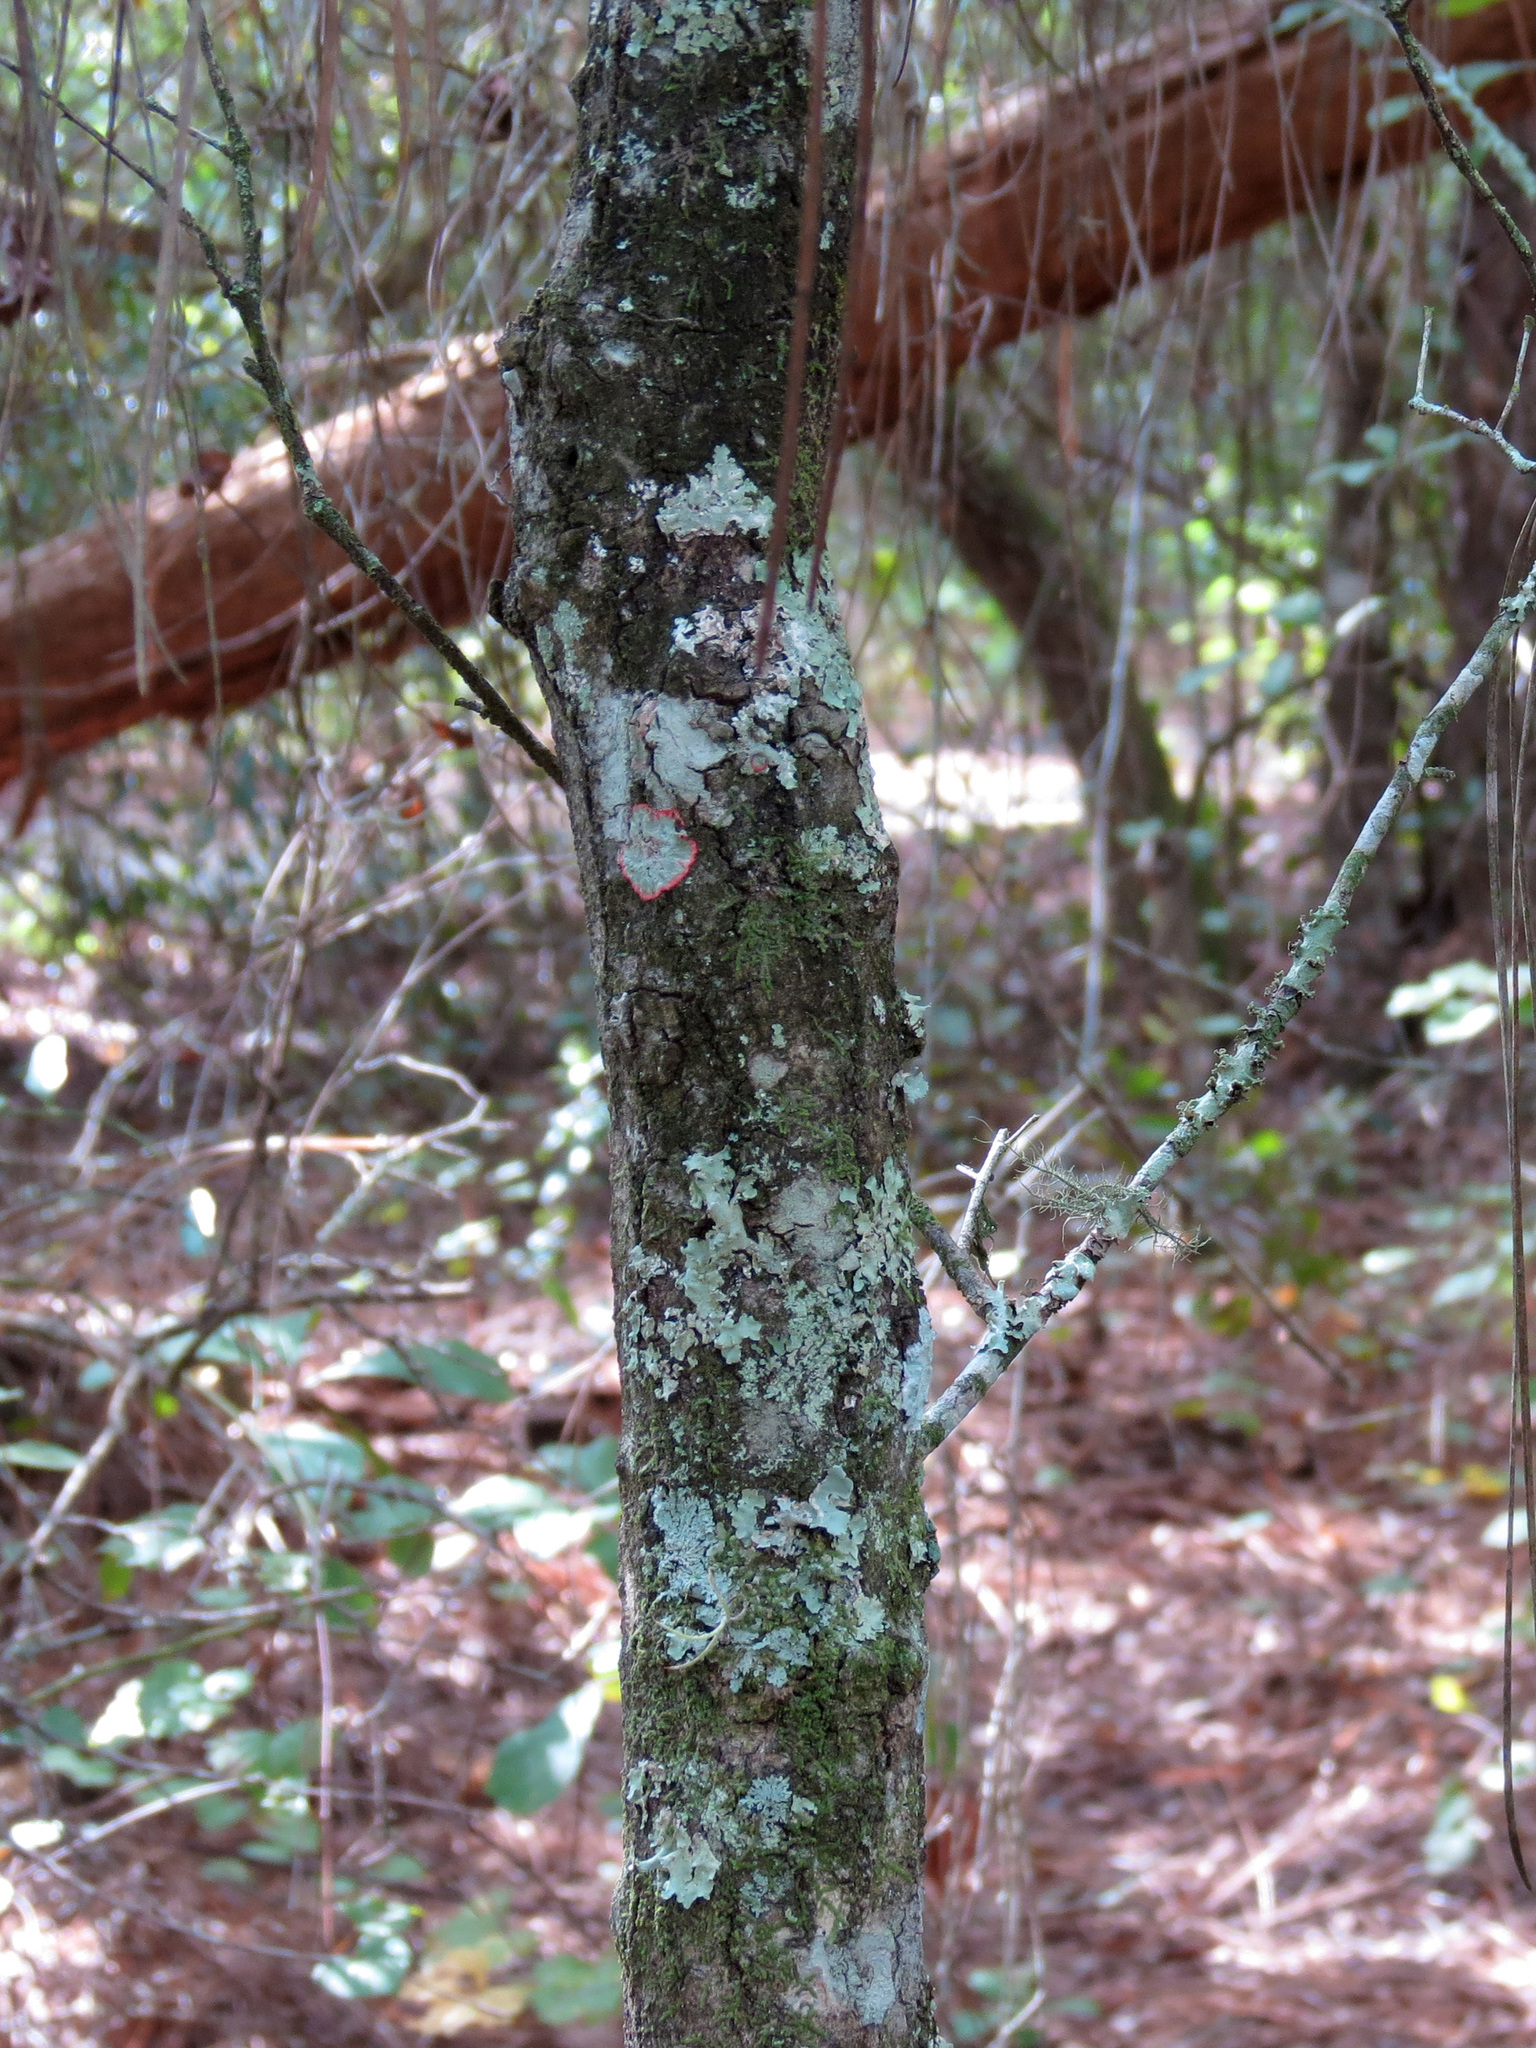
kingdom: Plantae
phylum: Tracheophyta
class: Magnoliopsida
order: Fagales
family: Fagaceae
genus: Quercus
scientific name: Quercus nigra
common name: Water oak
